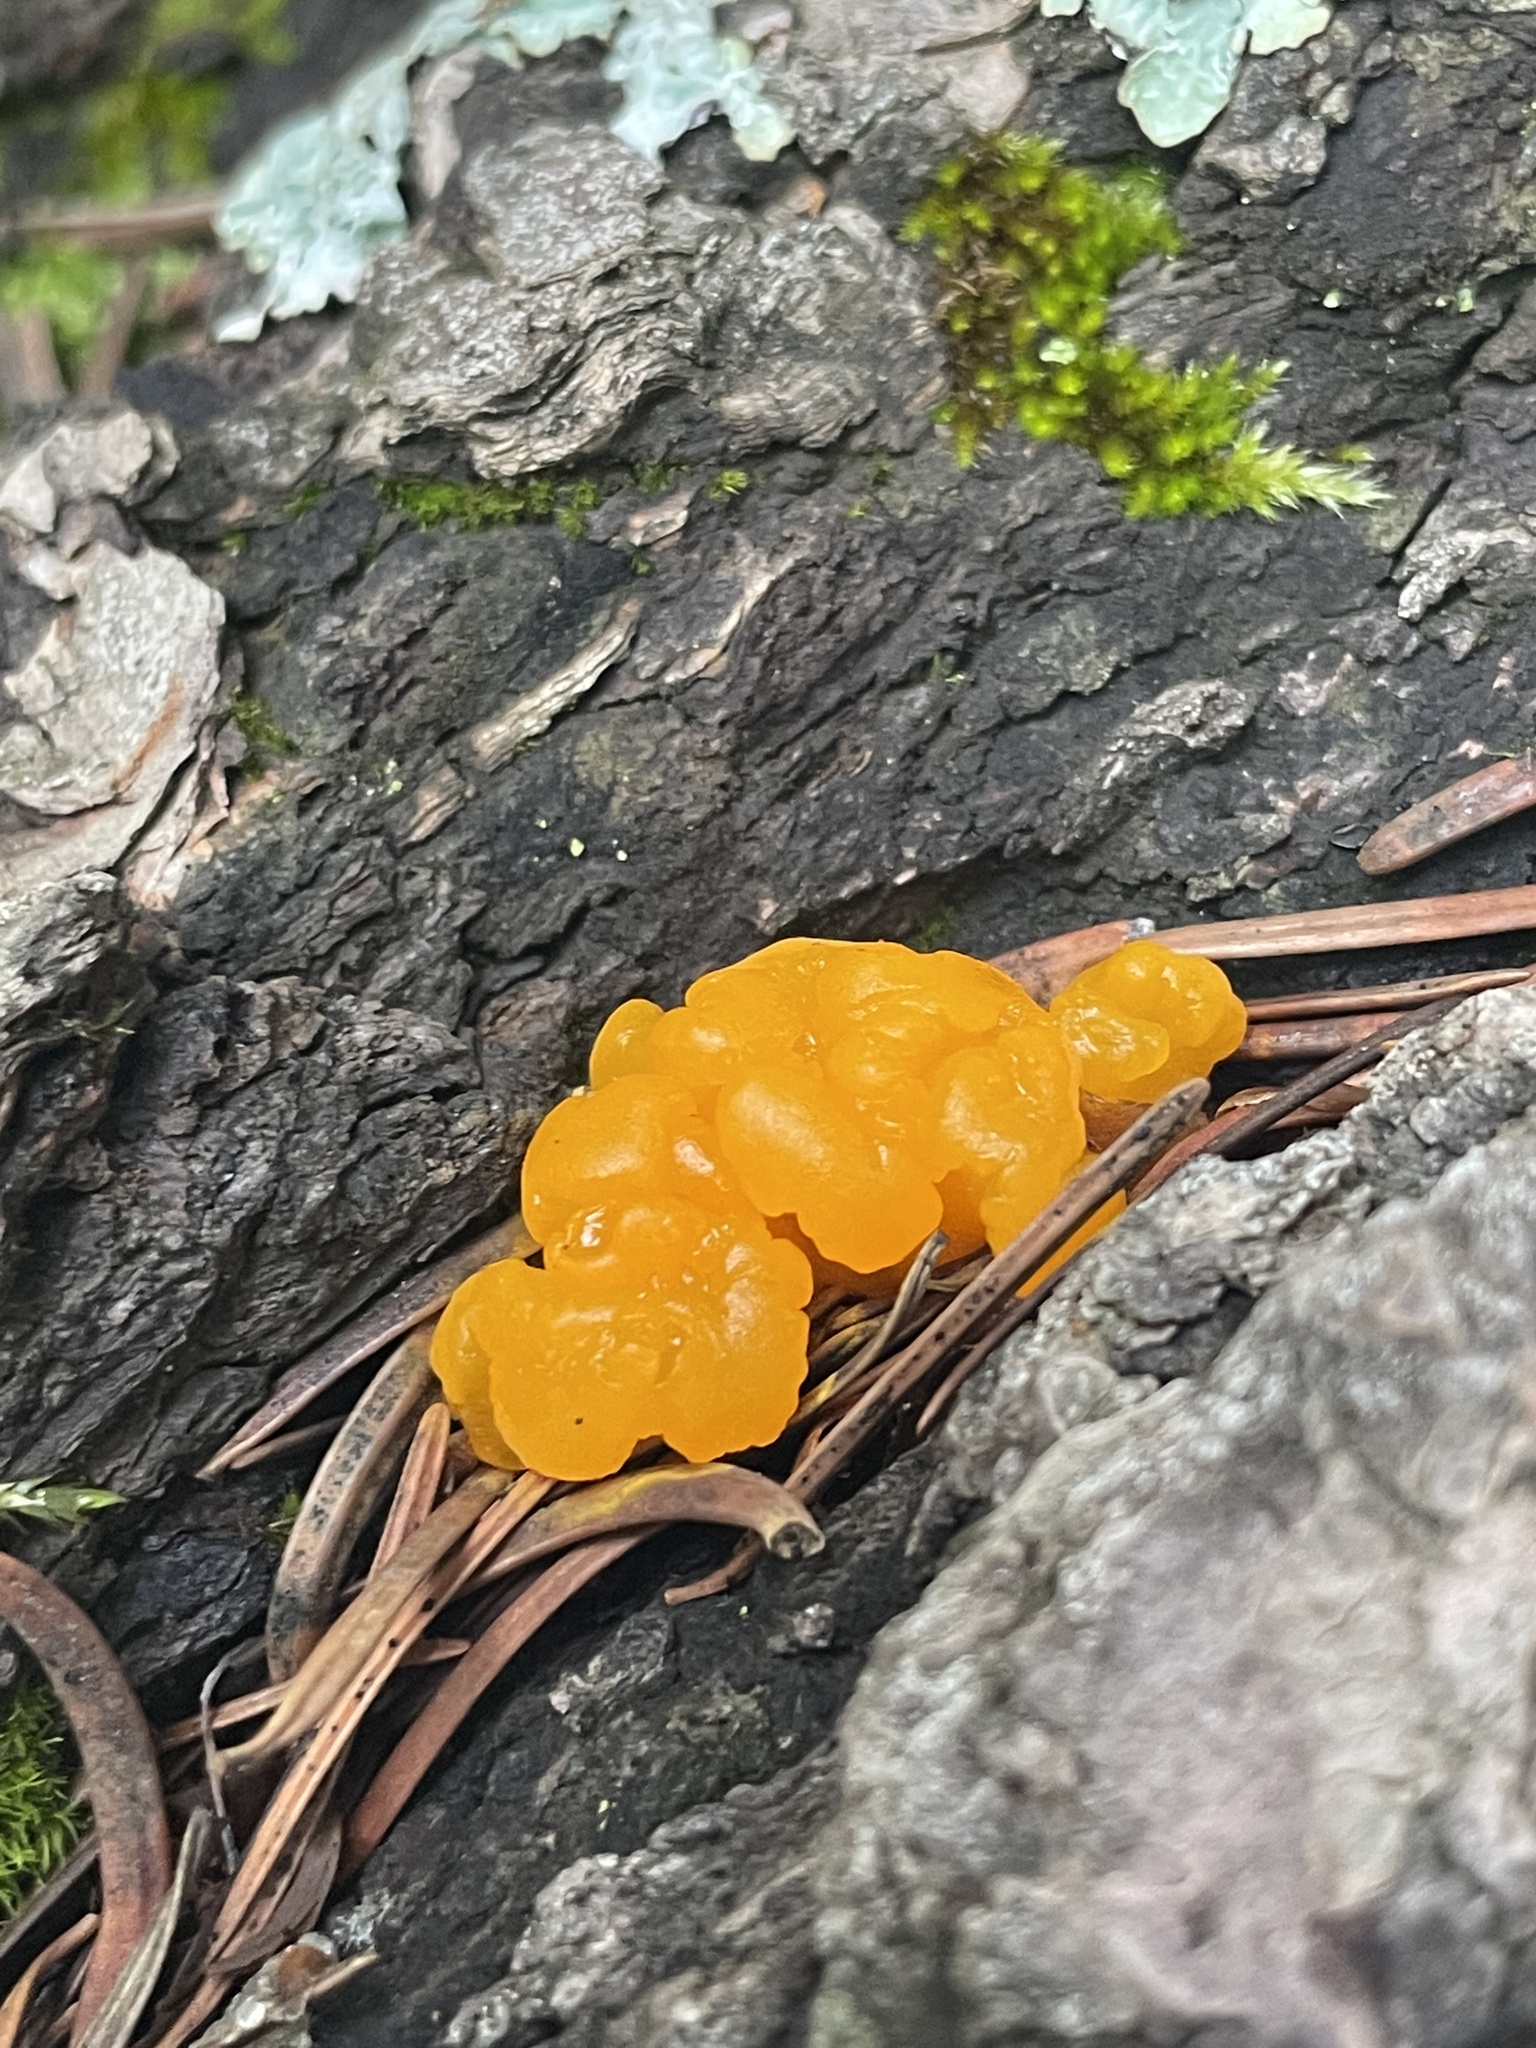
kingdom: Fungi
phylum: Basidiomycota
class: Dacrymycetes
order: Dacrymycetales
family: Dacrymycetaceae
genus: Dacrymyces
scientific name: Dacrymyces dictyosporus
